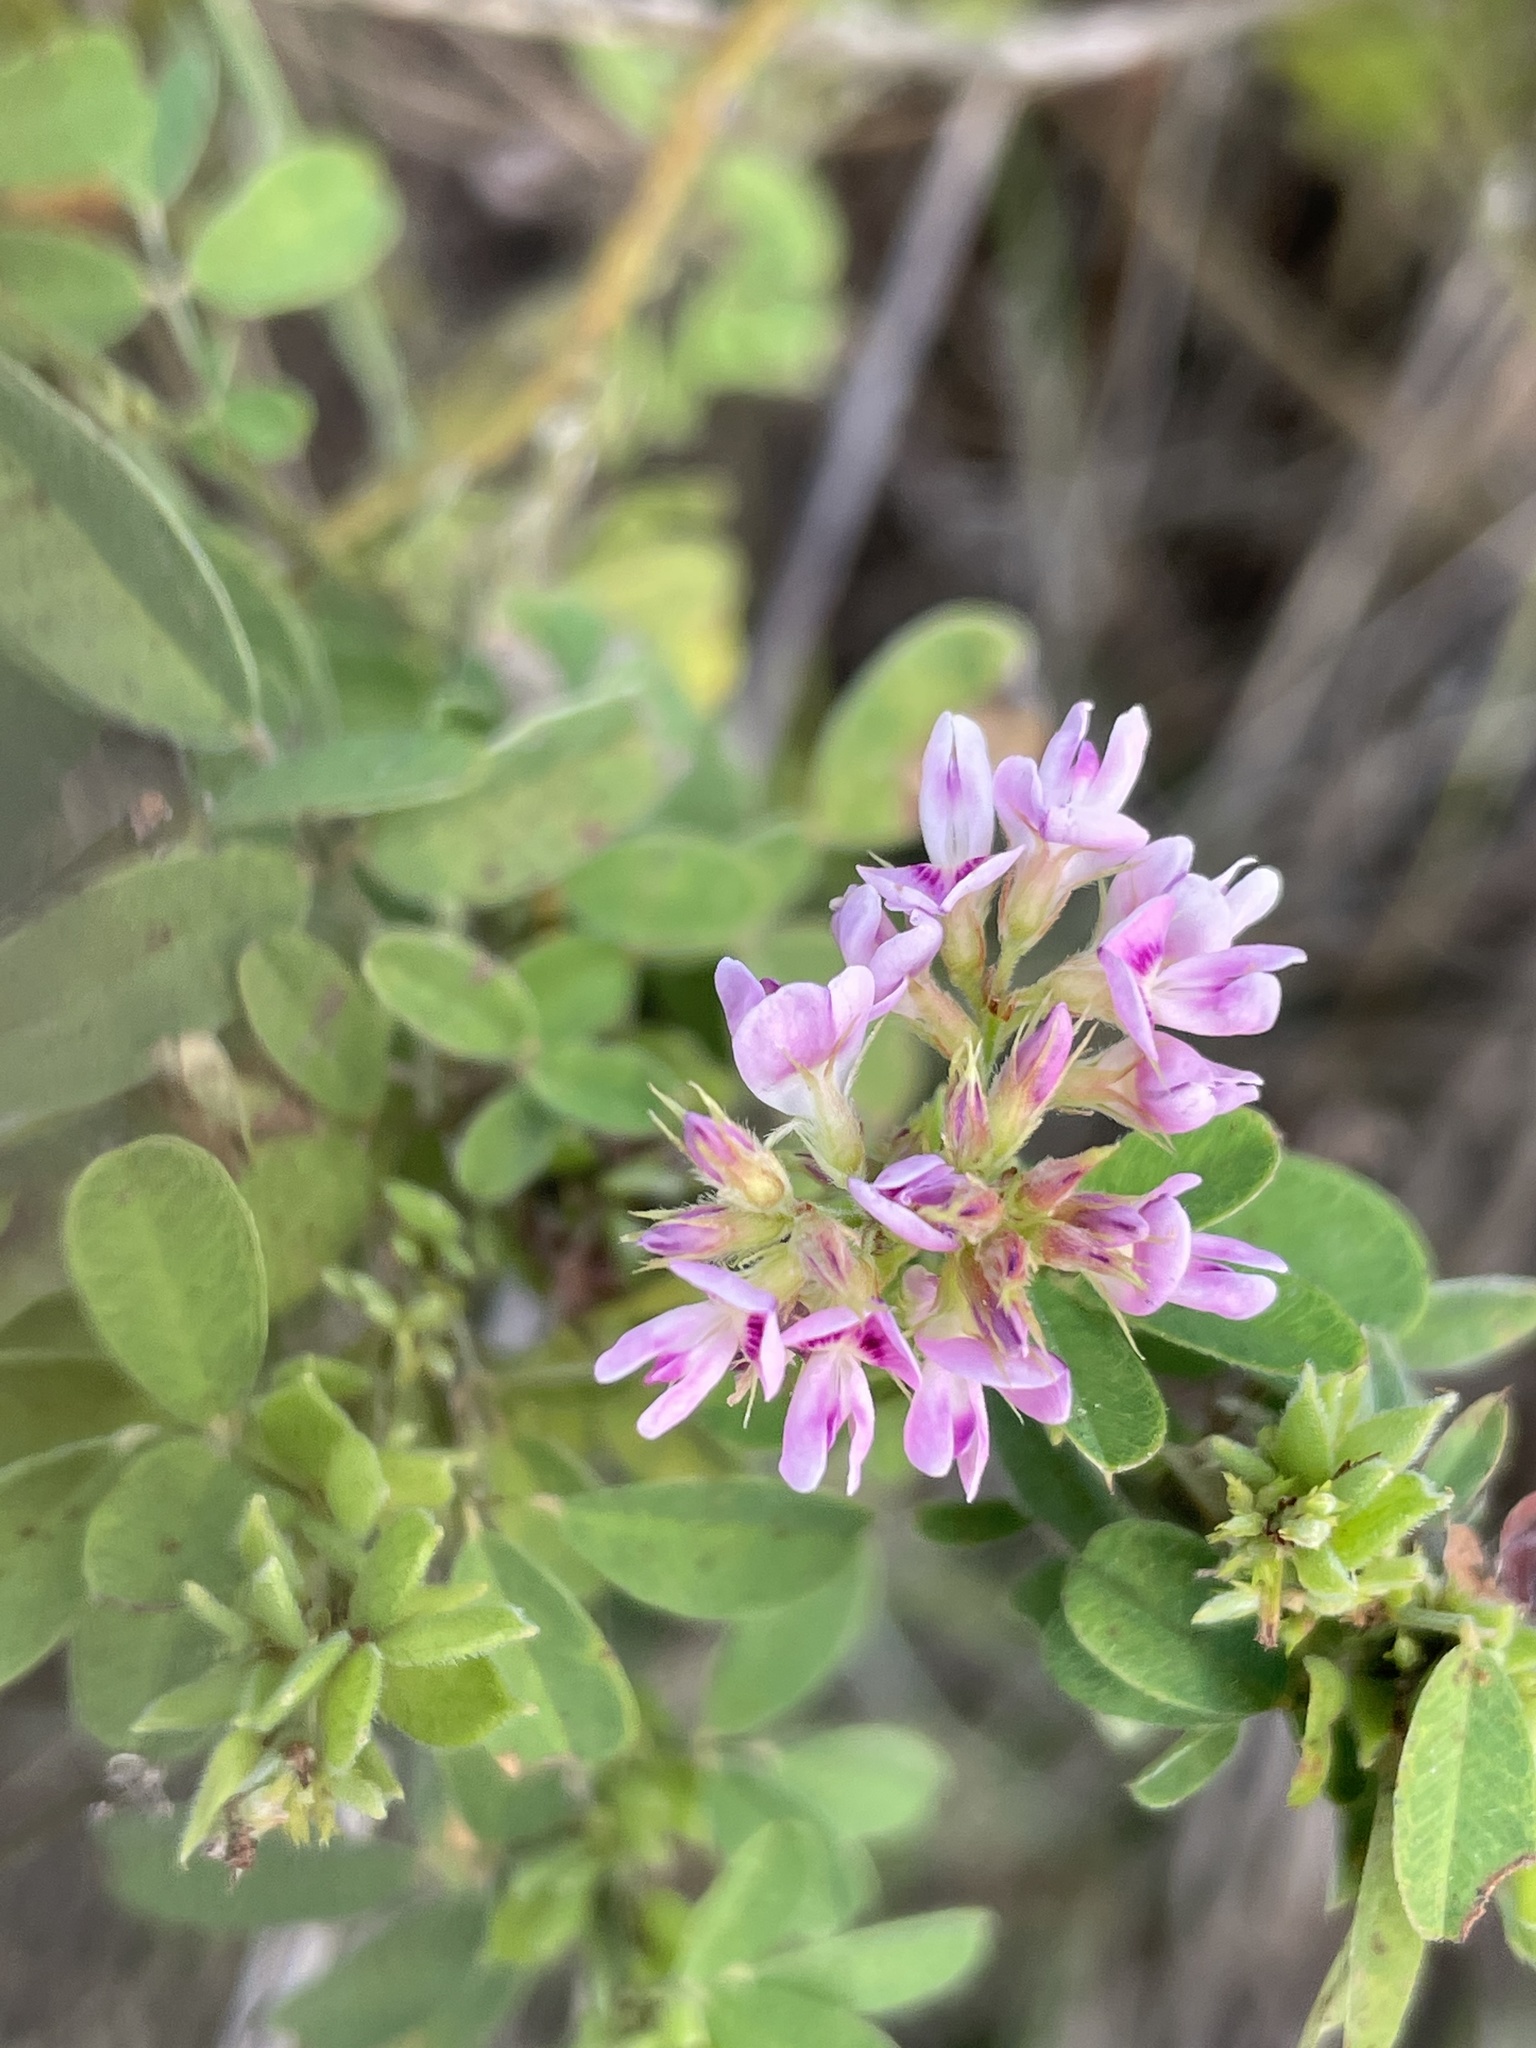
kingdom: Plantae
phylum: Tracheophyta
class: Magnoliopsida
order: Fabales
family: Fabaceae
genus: Lespedeza
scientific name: Lespedeza virginica
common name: Slender bush-clover
